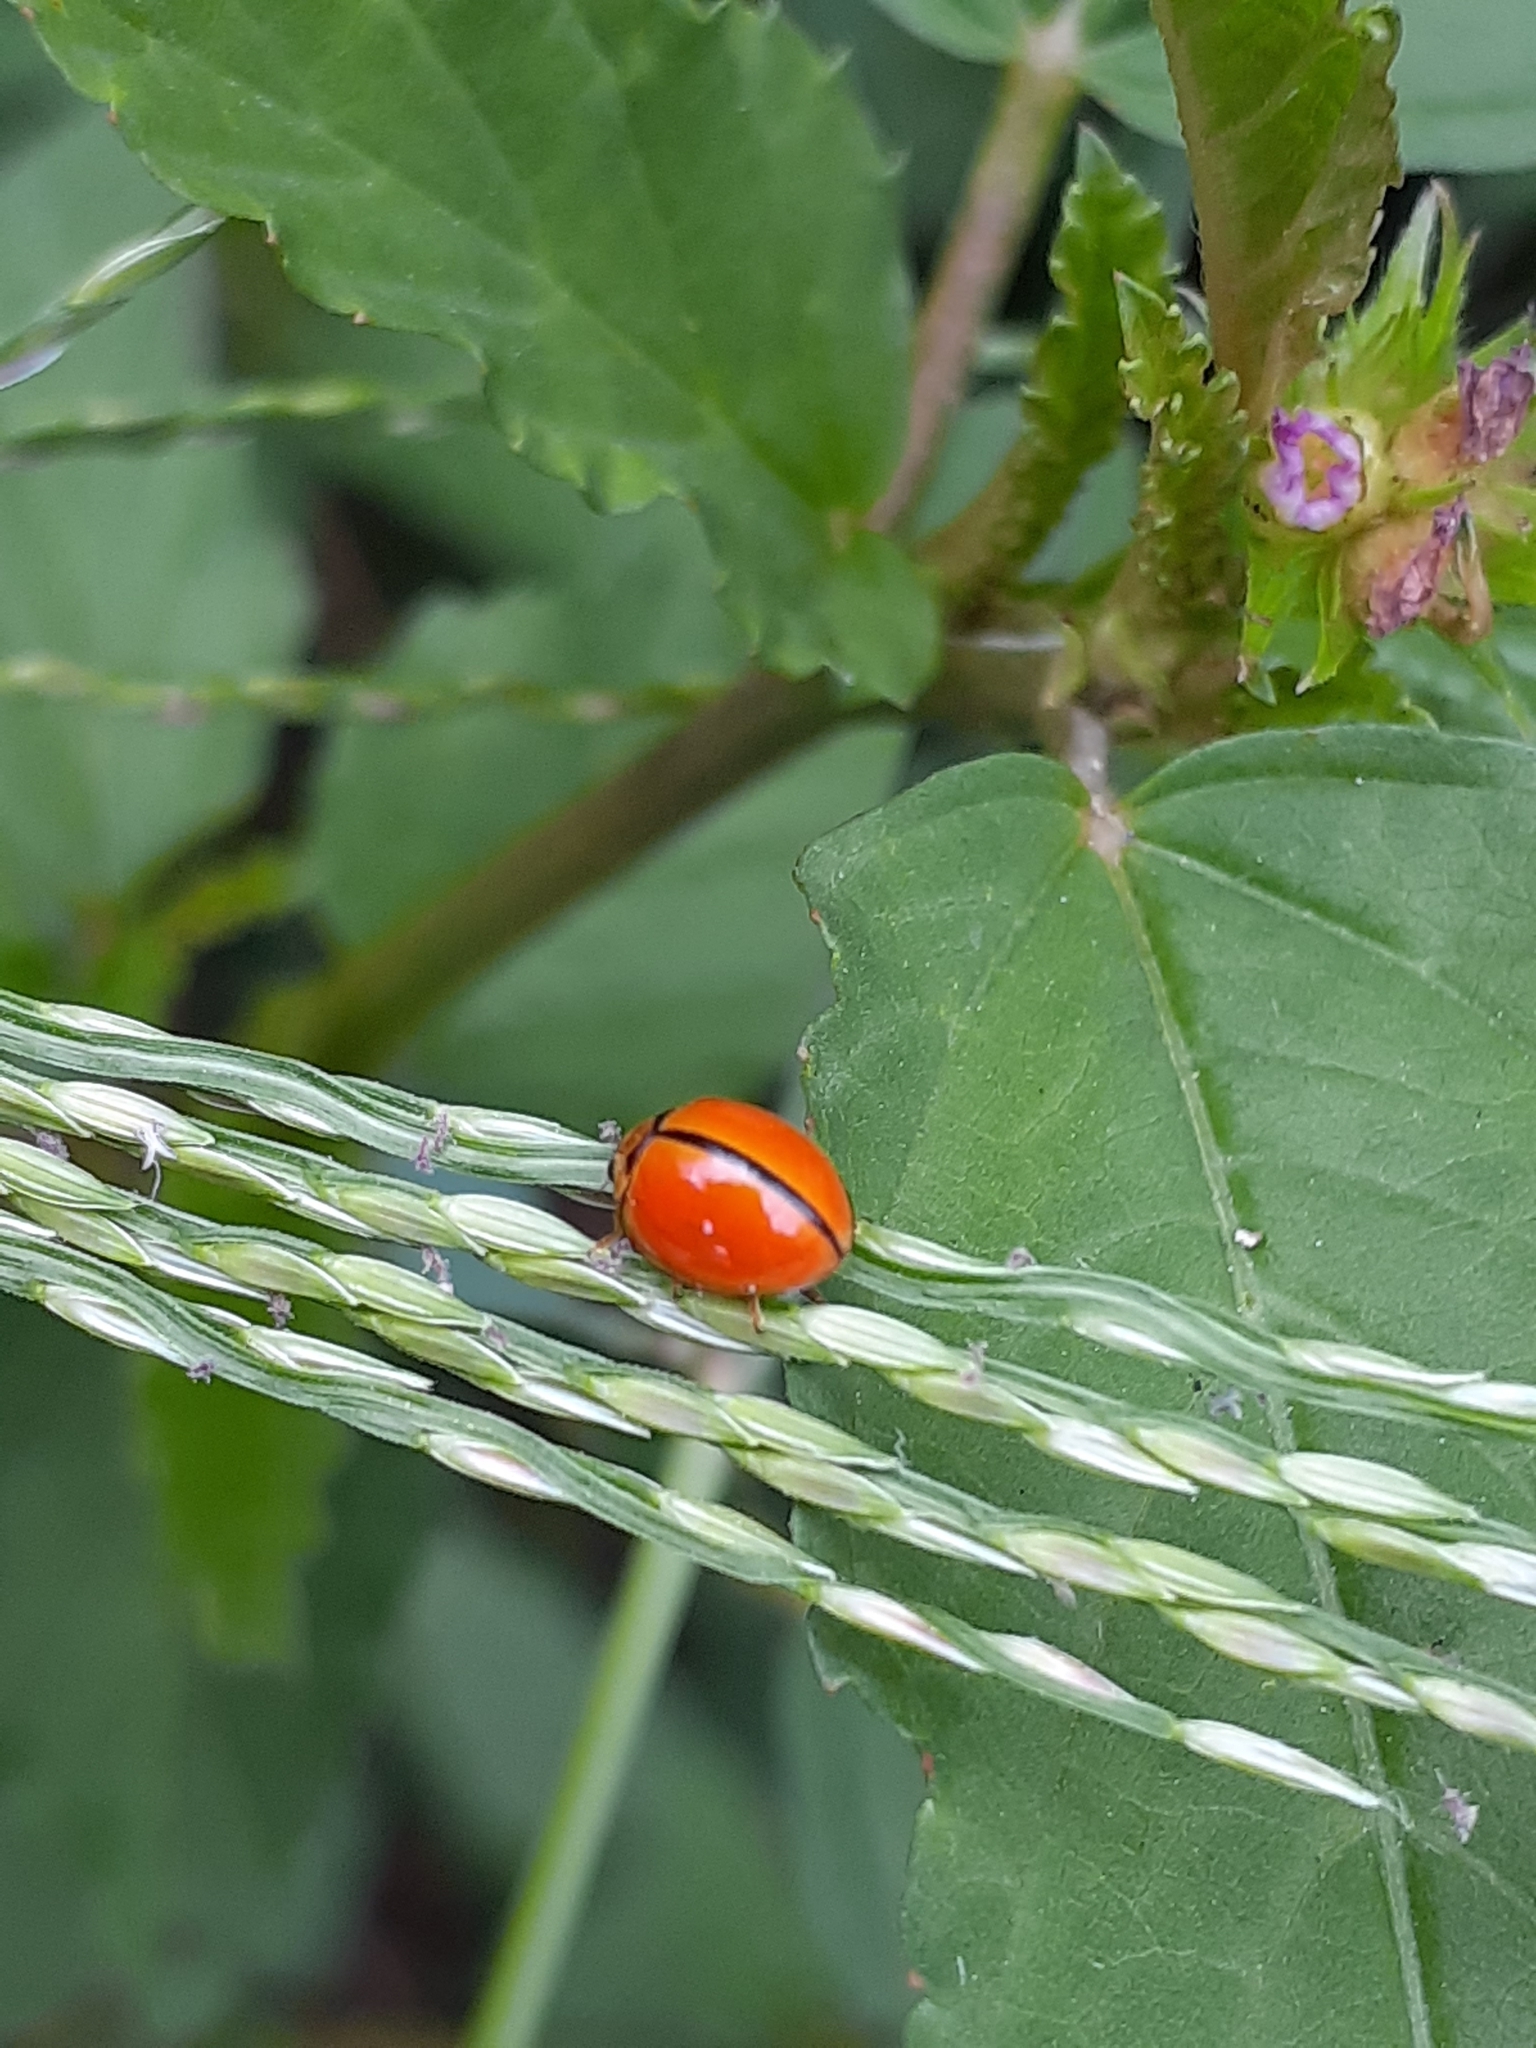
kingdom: Animalia
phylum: Arthropoda
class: Insecta
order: Coleoptera
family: Coccinellidae
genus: Micraspis
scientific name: Micraspis discolor
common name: Lady beetle
